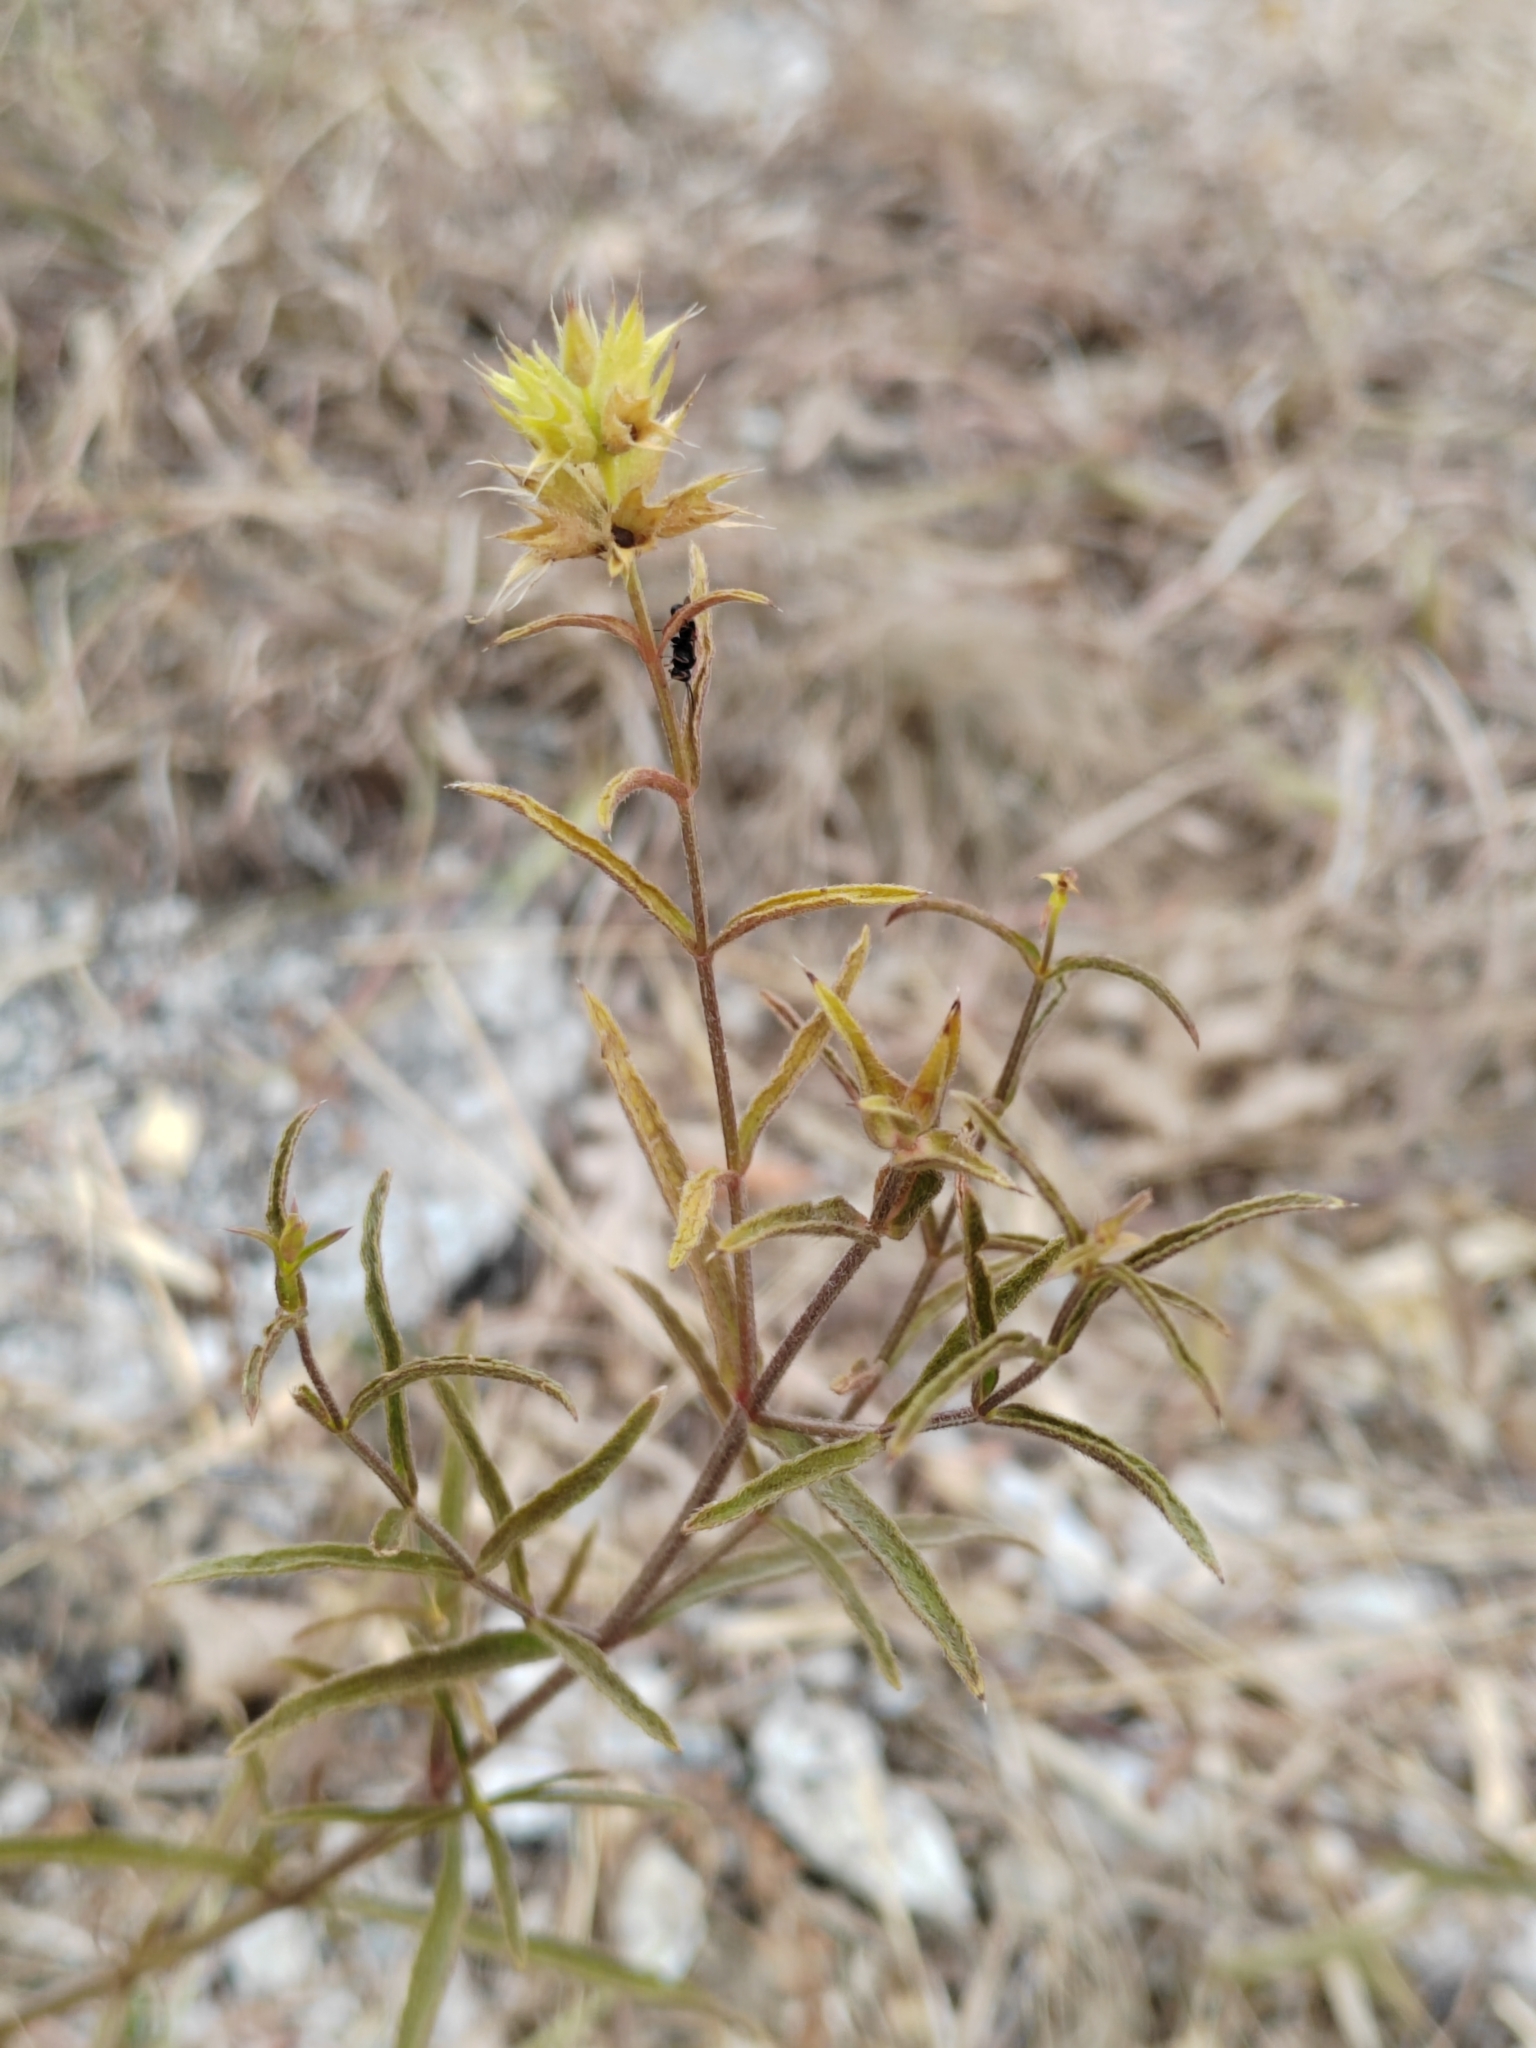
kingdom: Plantae
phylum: Tracheophyta
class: Magnoliopsida
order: Lamiales
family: Lamiaceae
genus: Stachys
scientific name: Stachys atherocalyx
